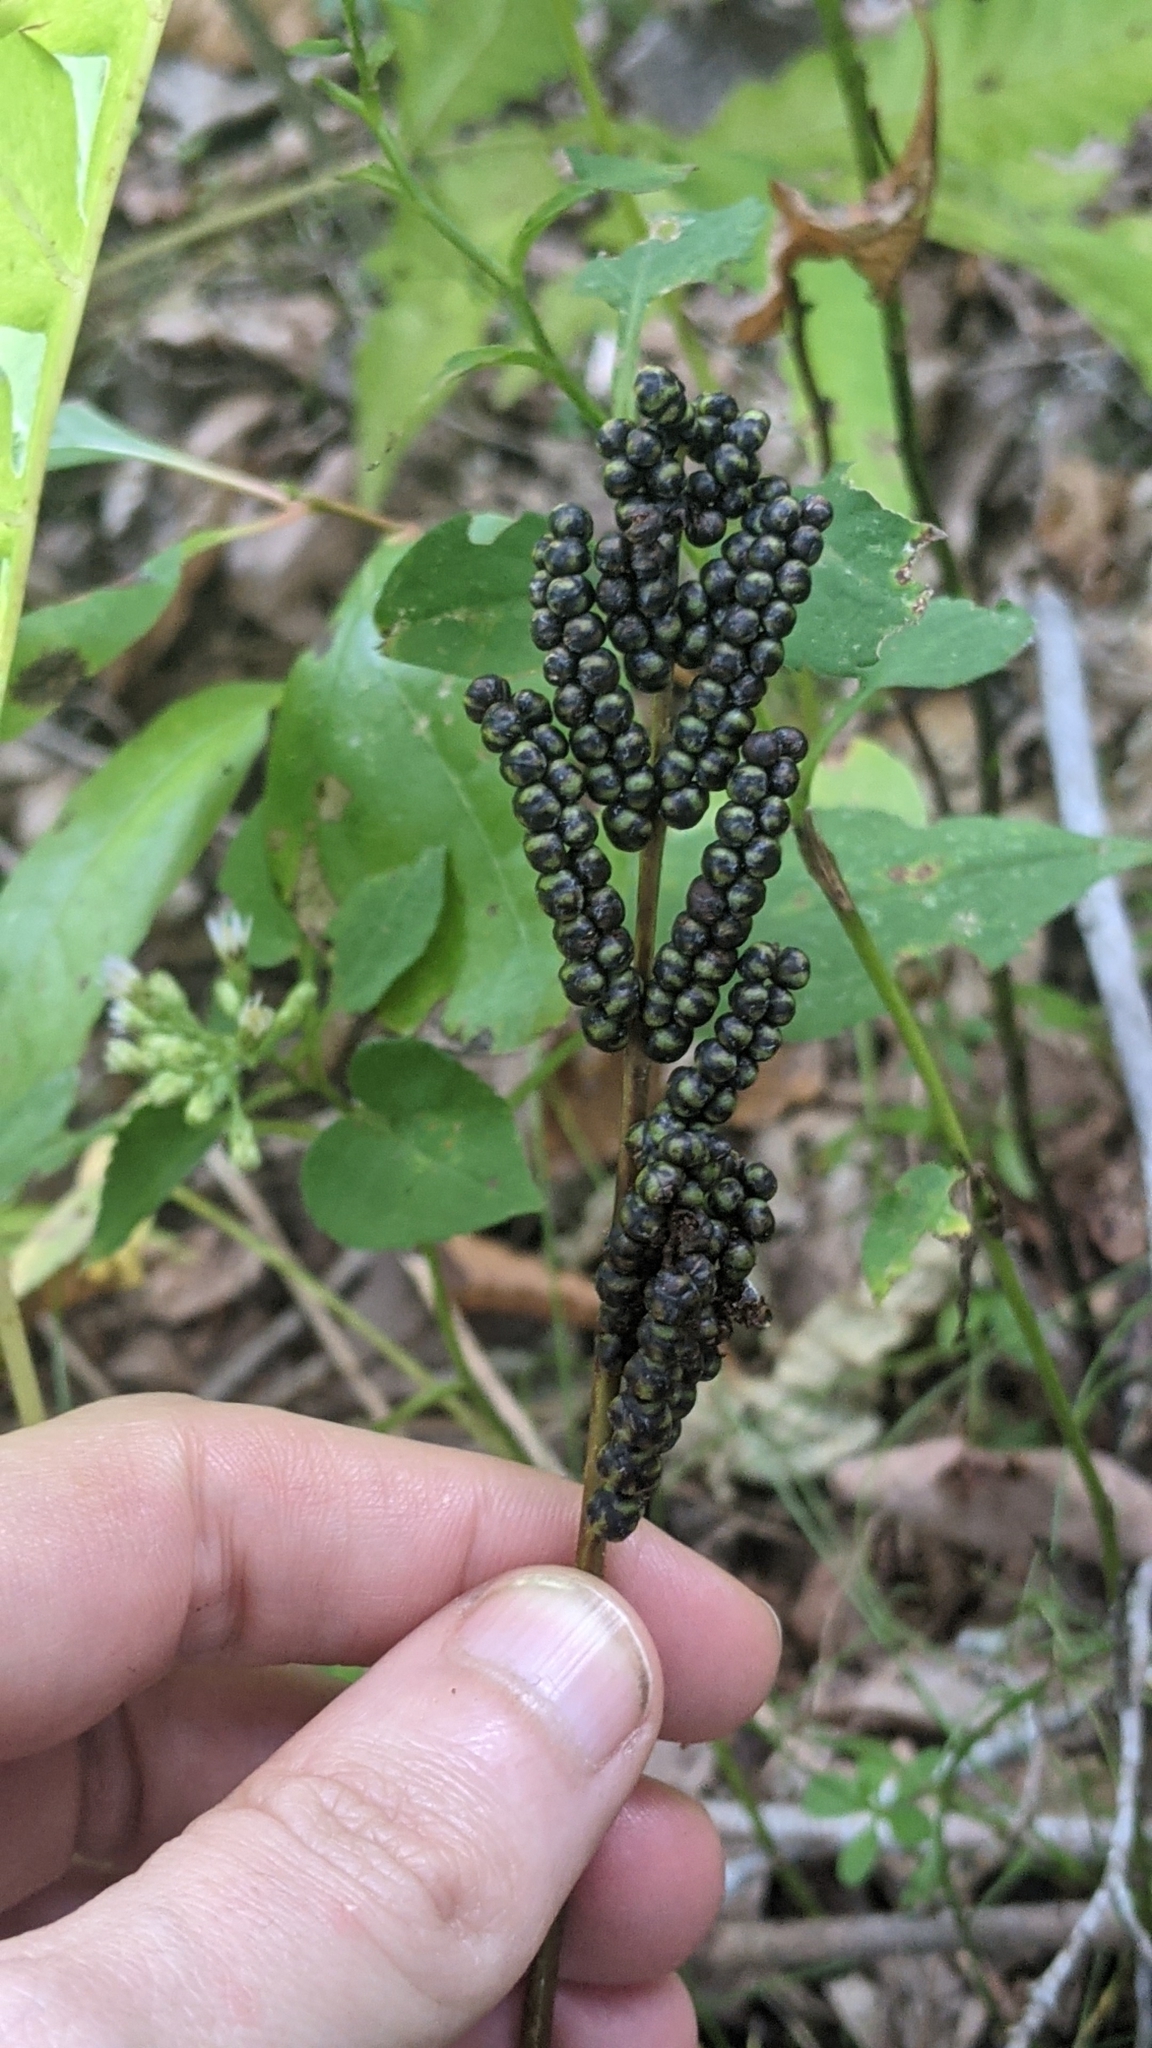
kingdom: Plantae
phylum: Tracheophyta
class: Polypodiopsida
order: Polypodiales
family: Onocleaceae
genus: Onoclea
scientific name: Onoclea sensibilis
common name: Sensitive fern
